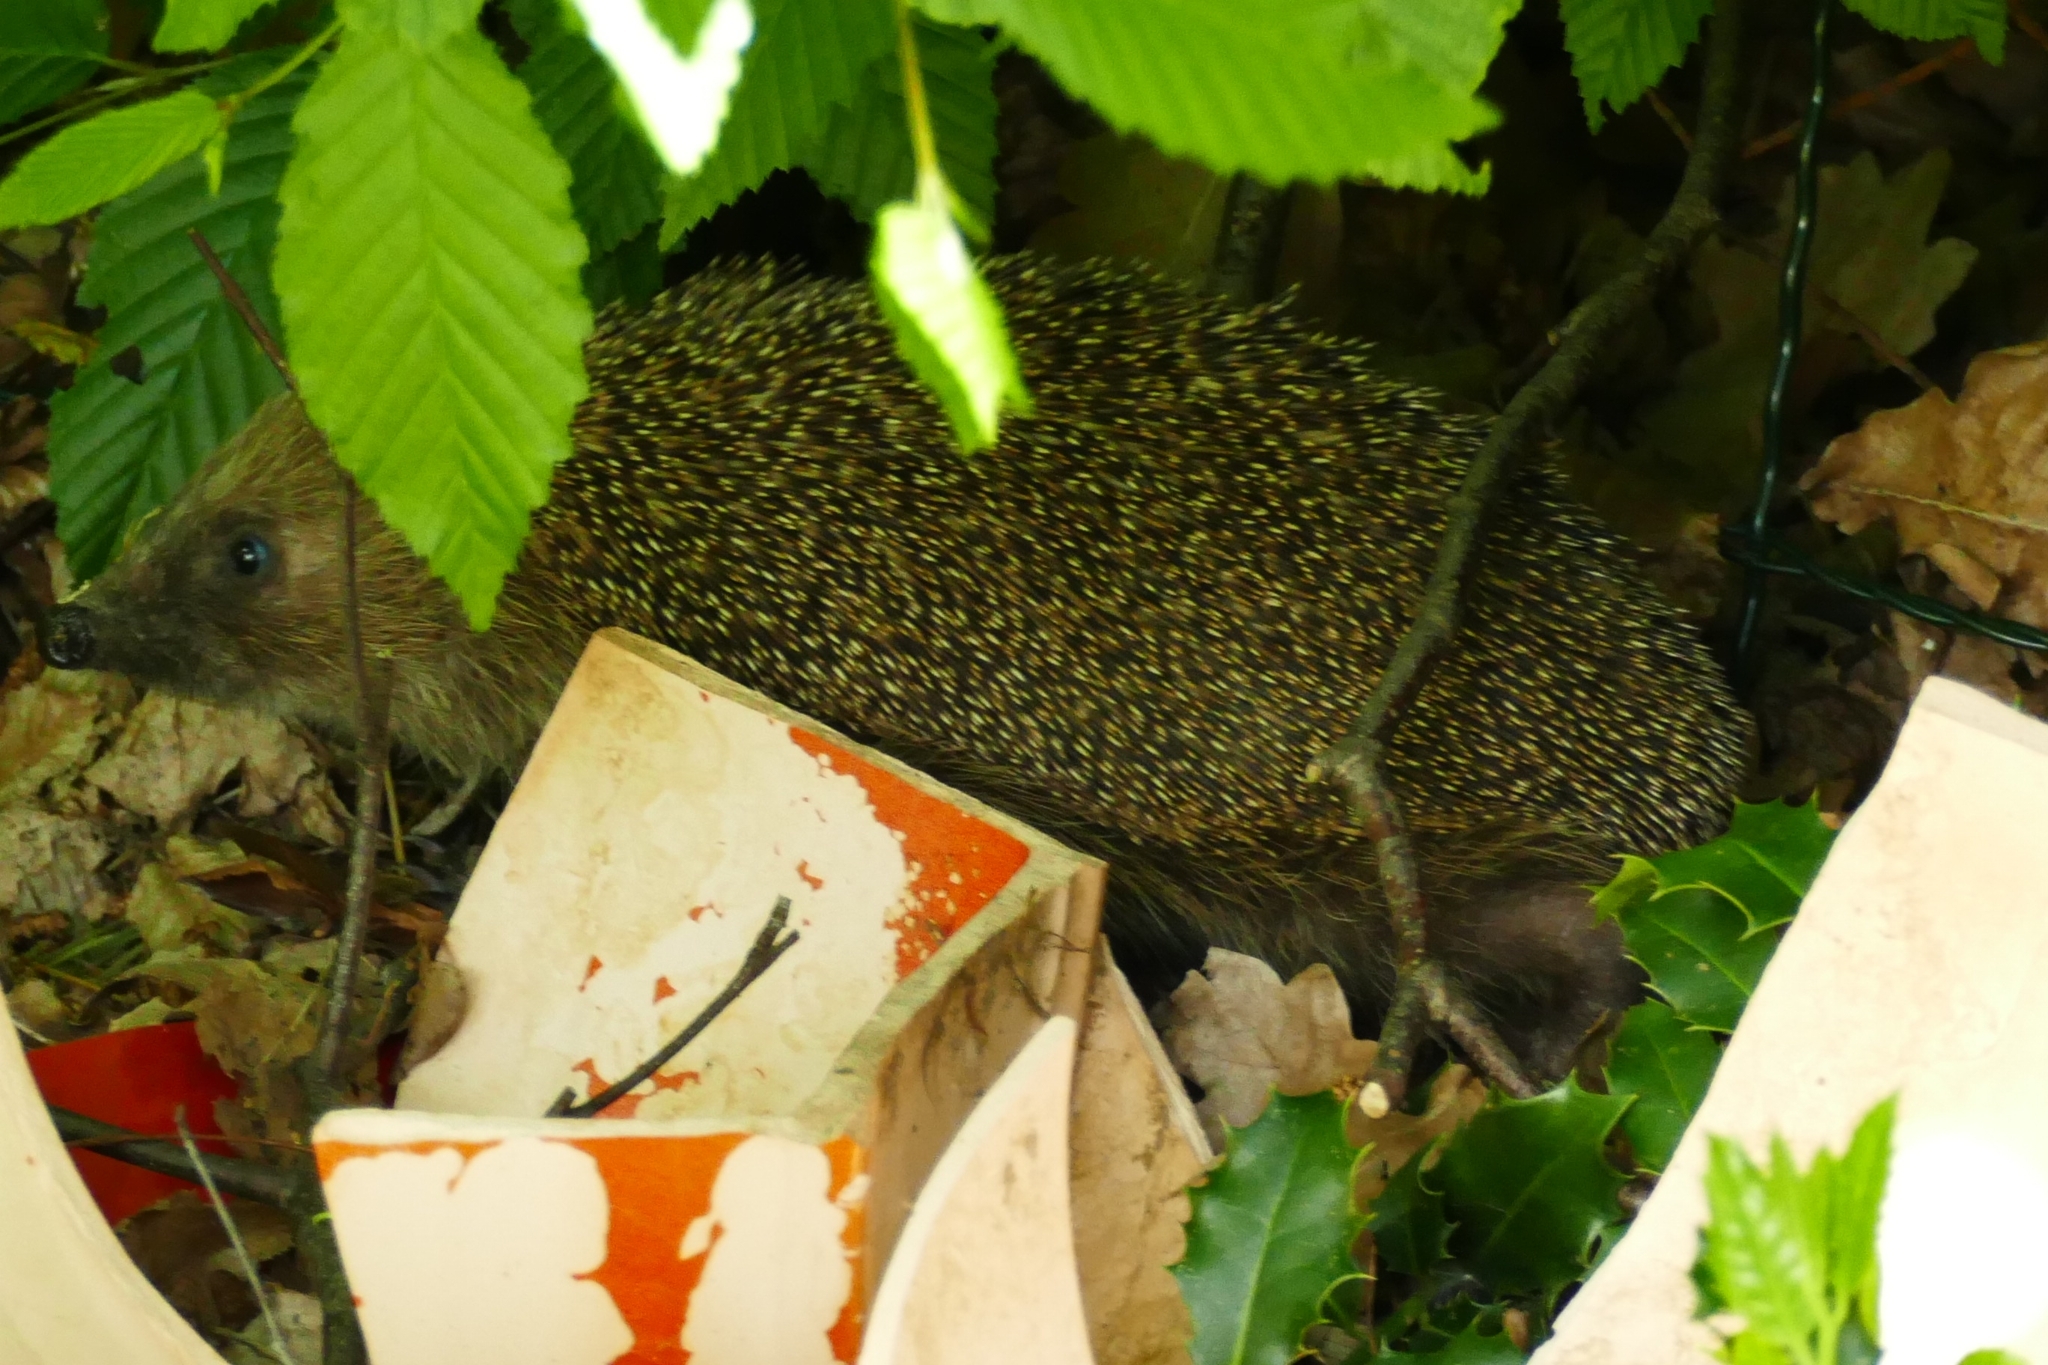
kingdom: Animalia
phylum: Chordata
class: Mammalia
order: Erinaceomorpha
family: Erinaceidae
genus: Erinaceus
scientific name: Erinaceus europaeus
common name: West european hedgehog
